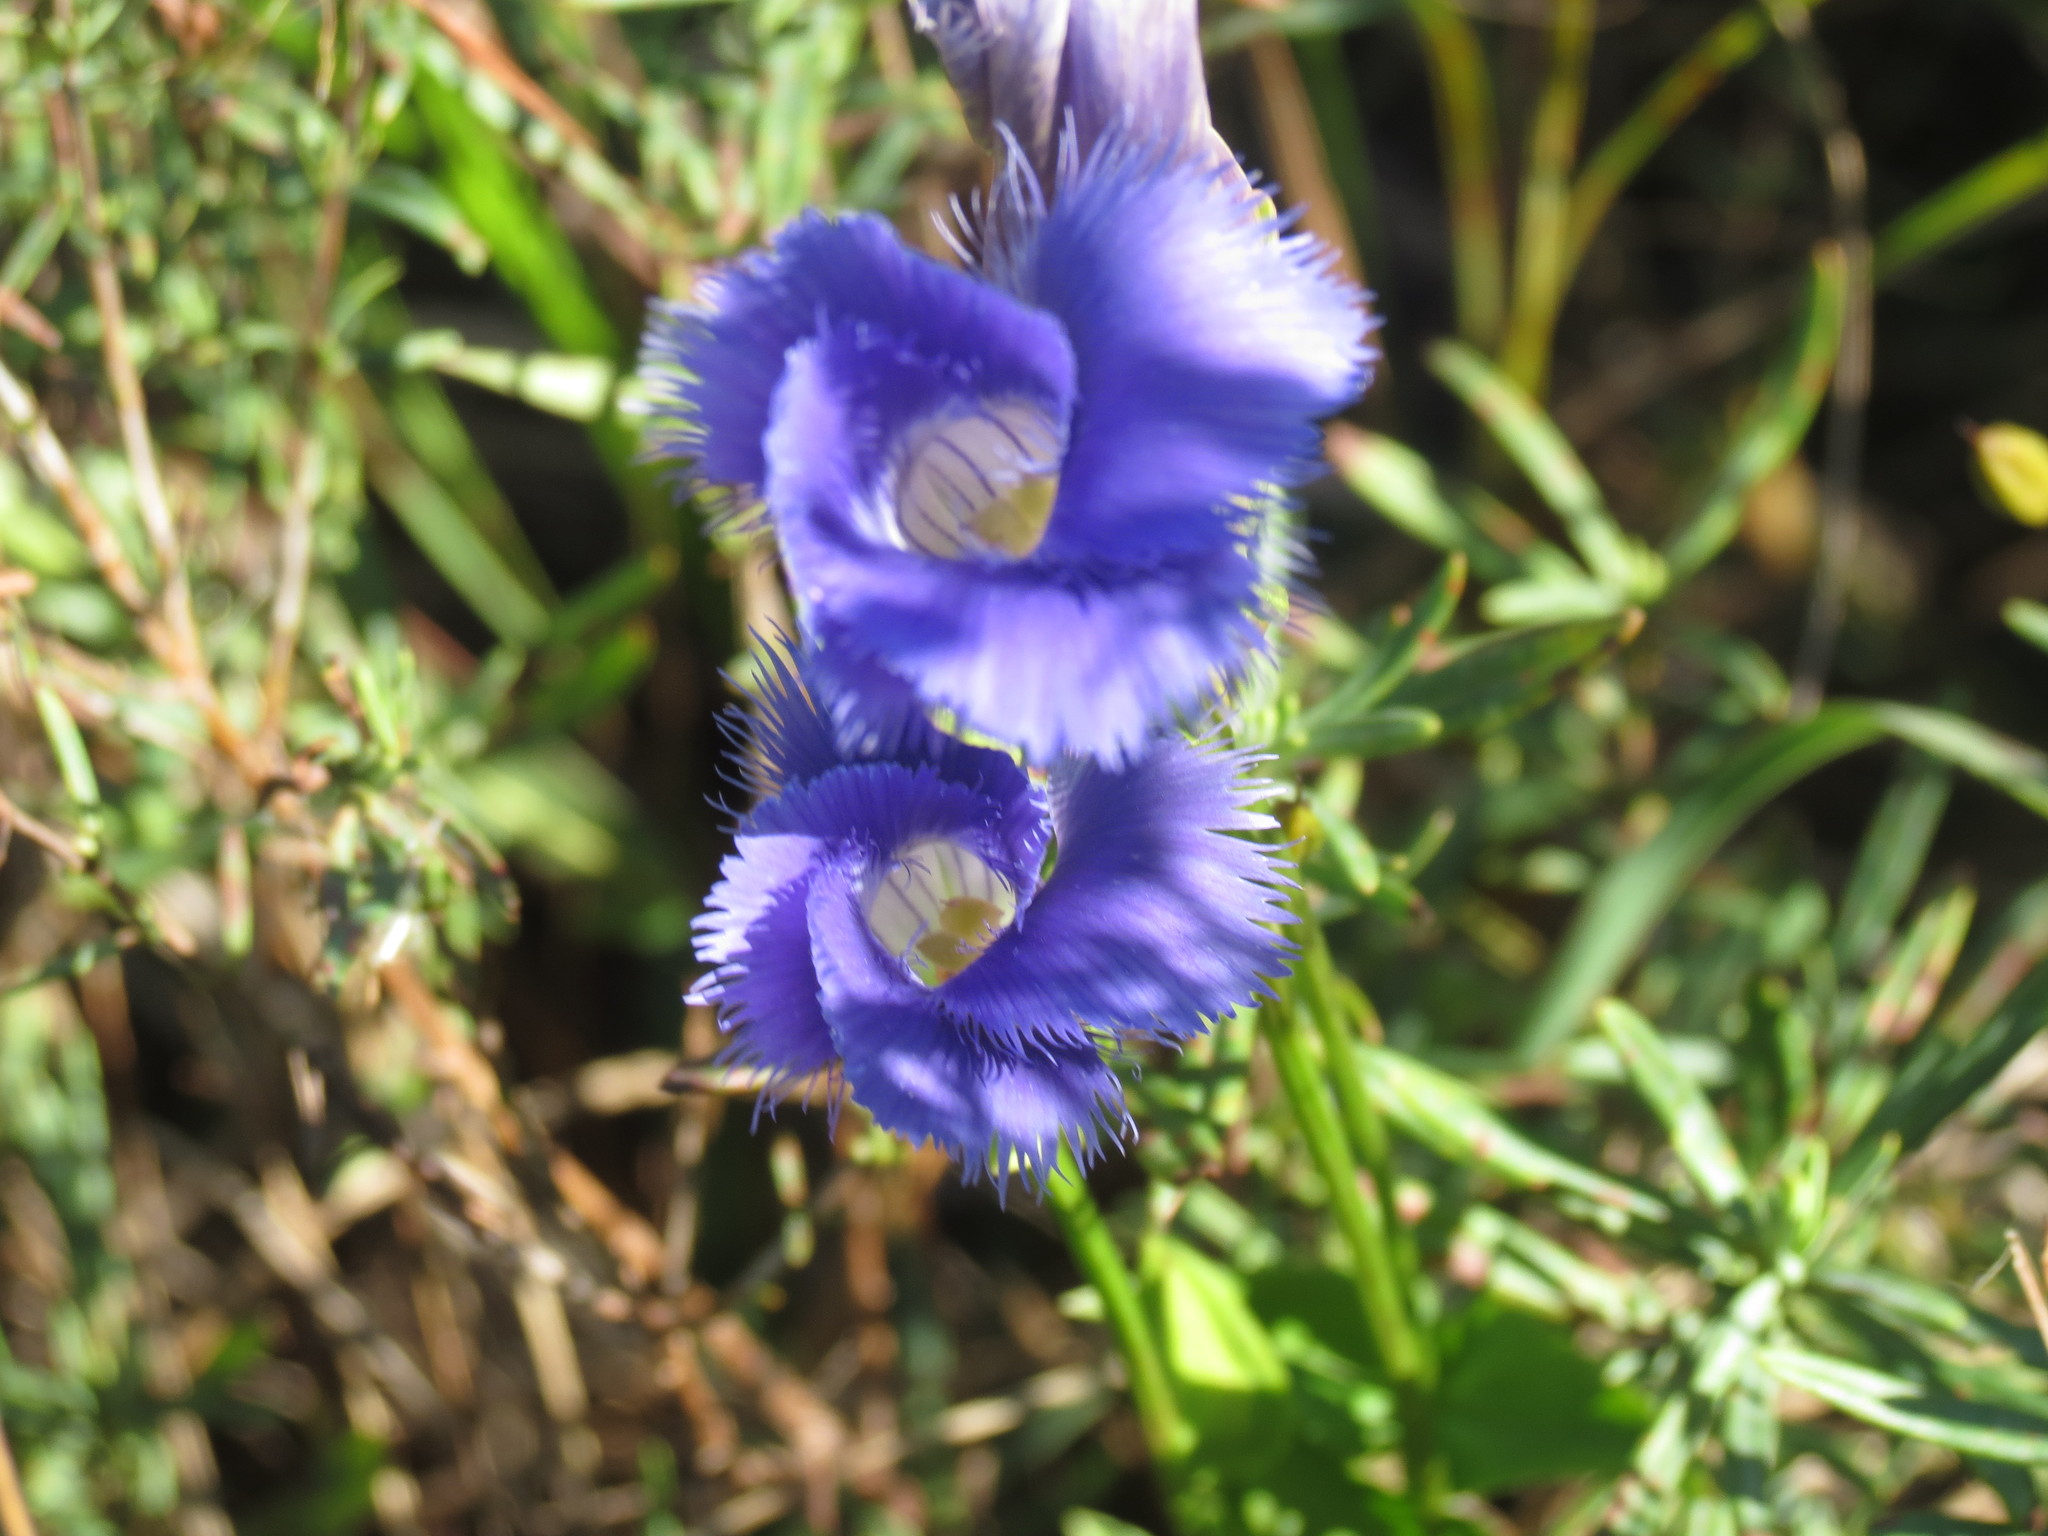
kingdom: Plantae
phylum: Tracheophyta
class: Magnoliopsida
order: Gentianales
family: Gentianaceae
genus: Gentianopsis
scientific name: Gentianopsis crinita
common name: Fringed-gentian
